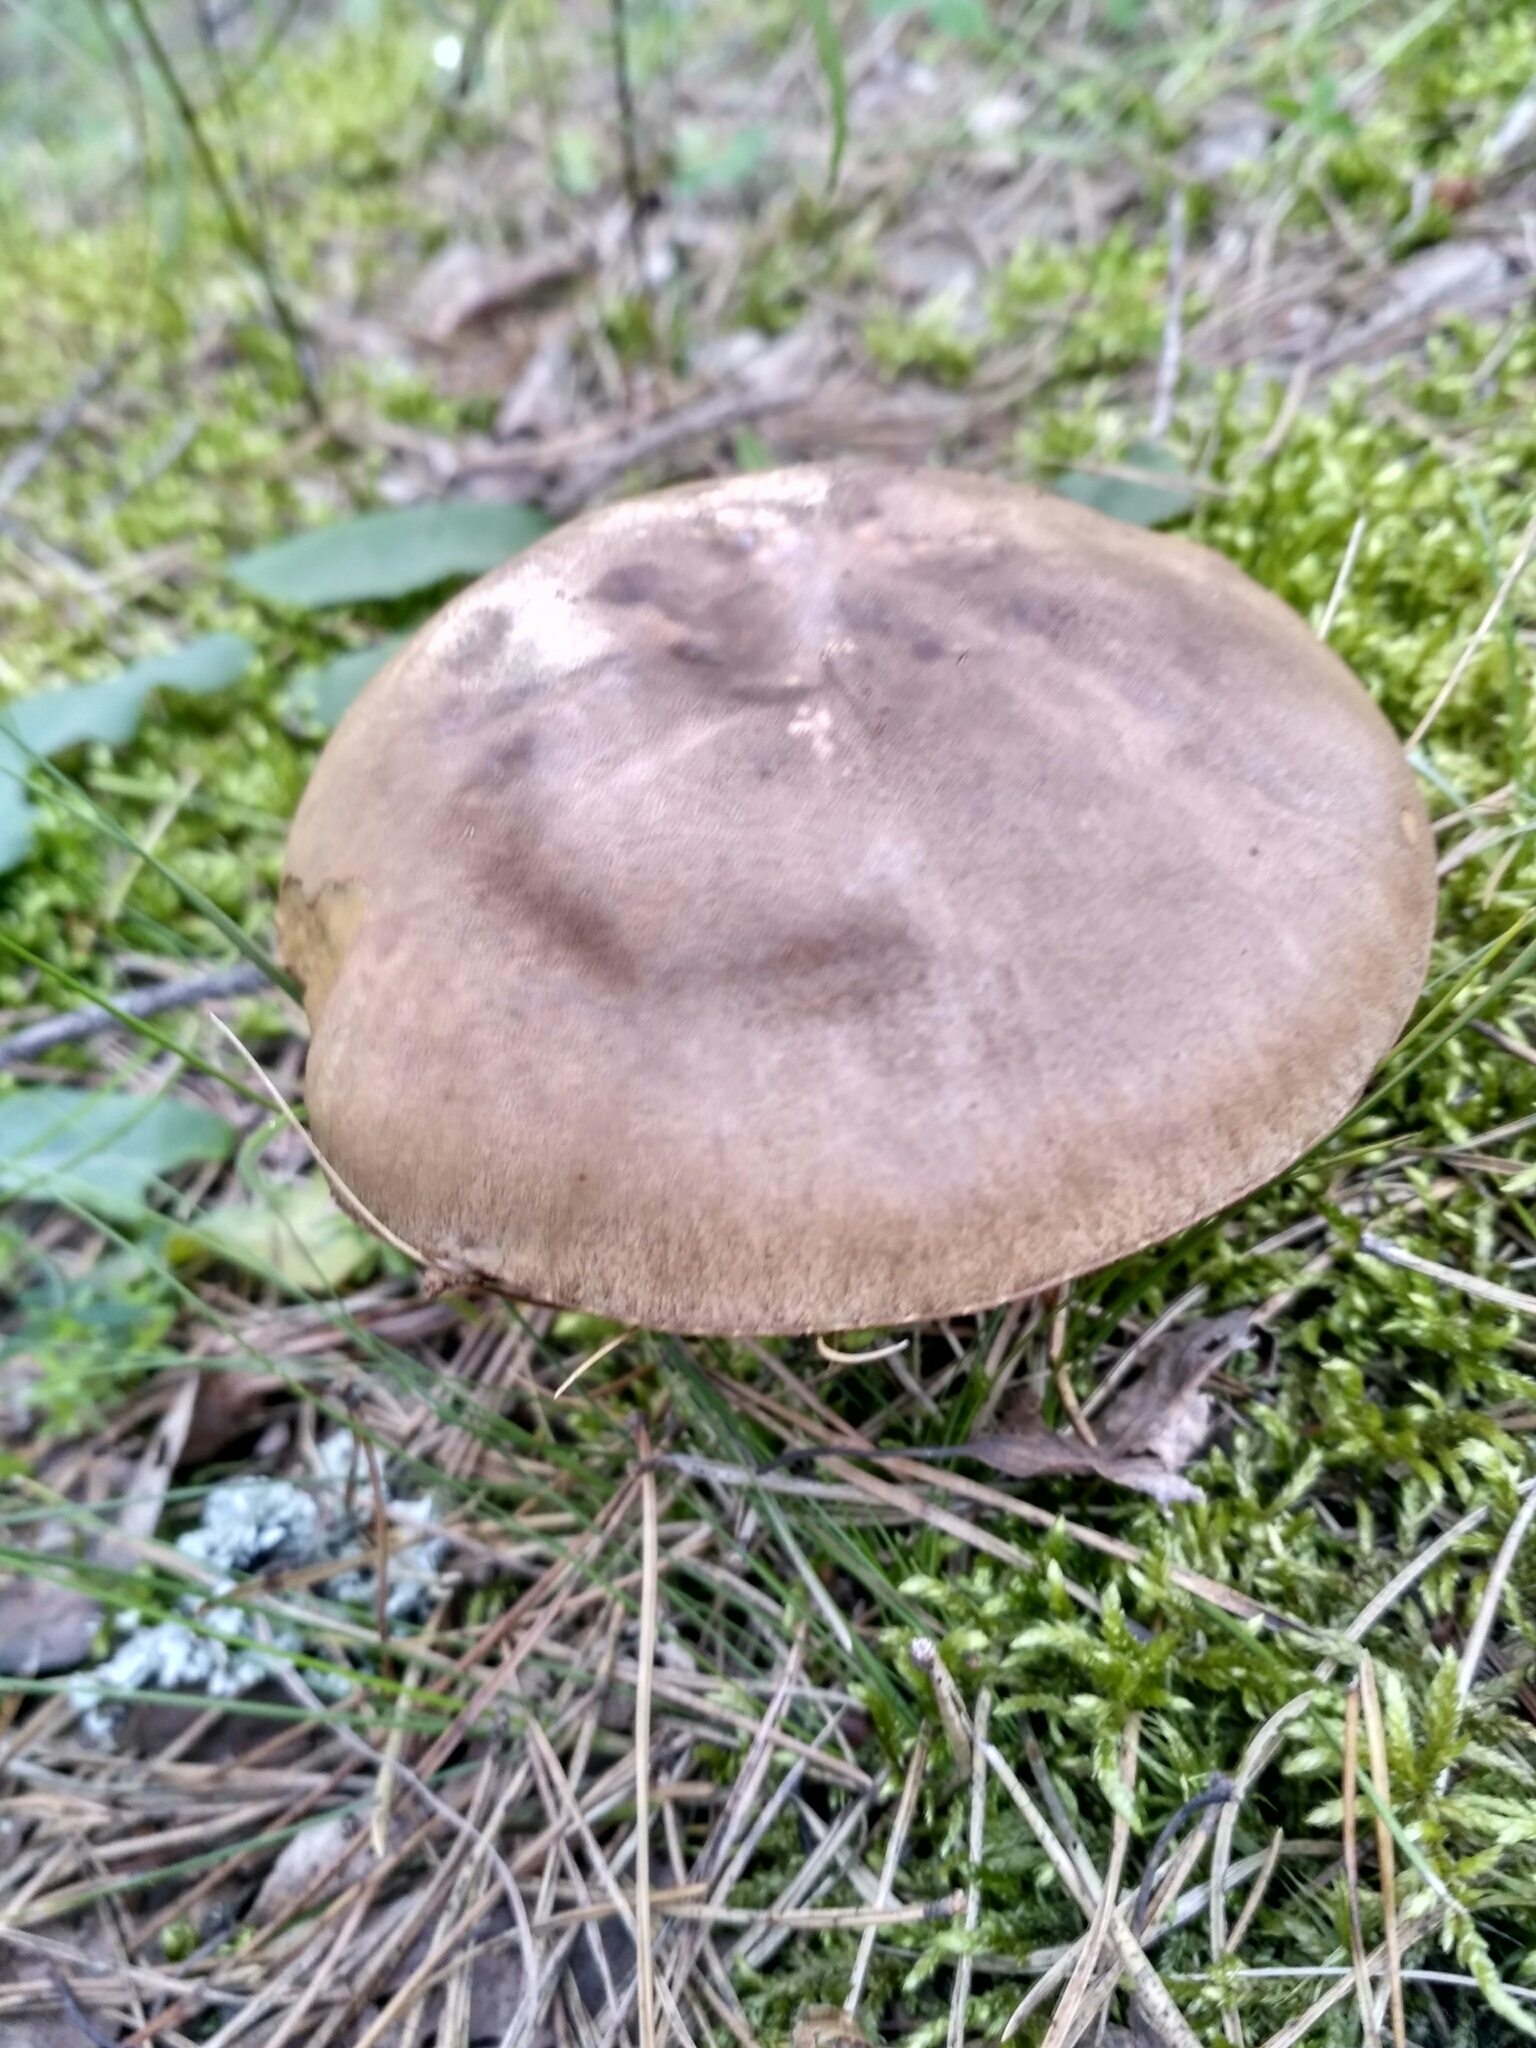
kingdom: Fungi
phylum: Basidiomycota
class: Agaricomycetes
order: Boletales
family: Boletaceae
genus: Leccinum
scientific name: Leccinum scabrum
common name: Blushing bolete
